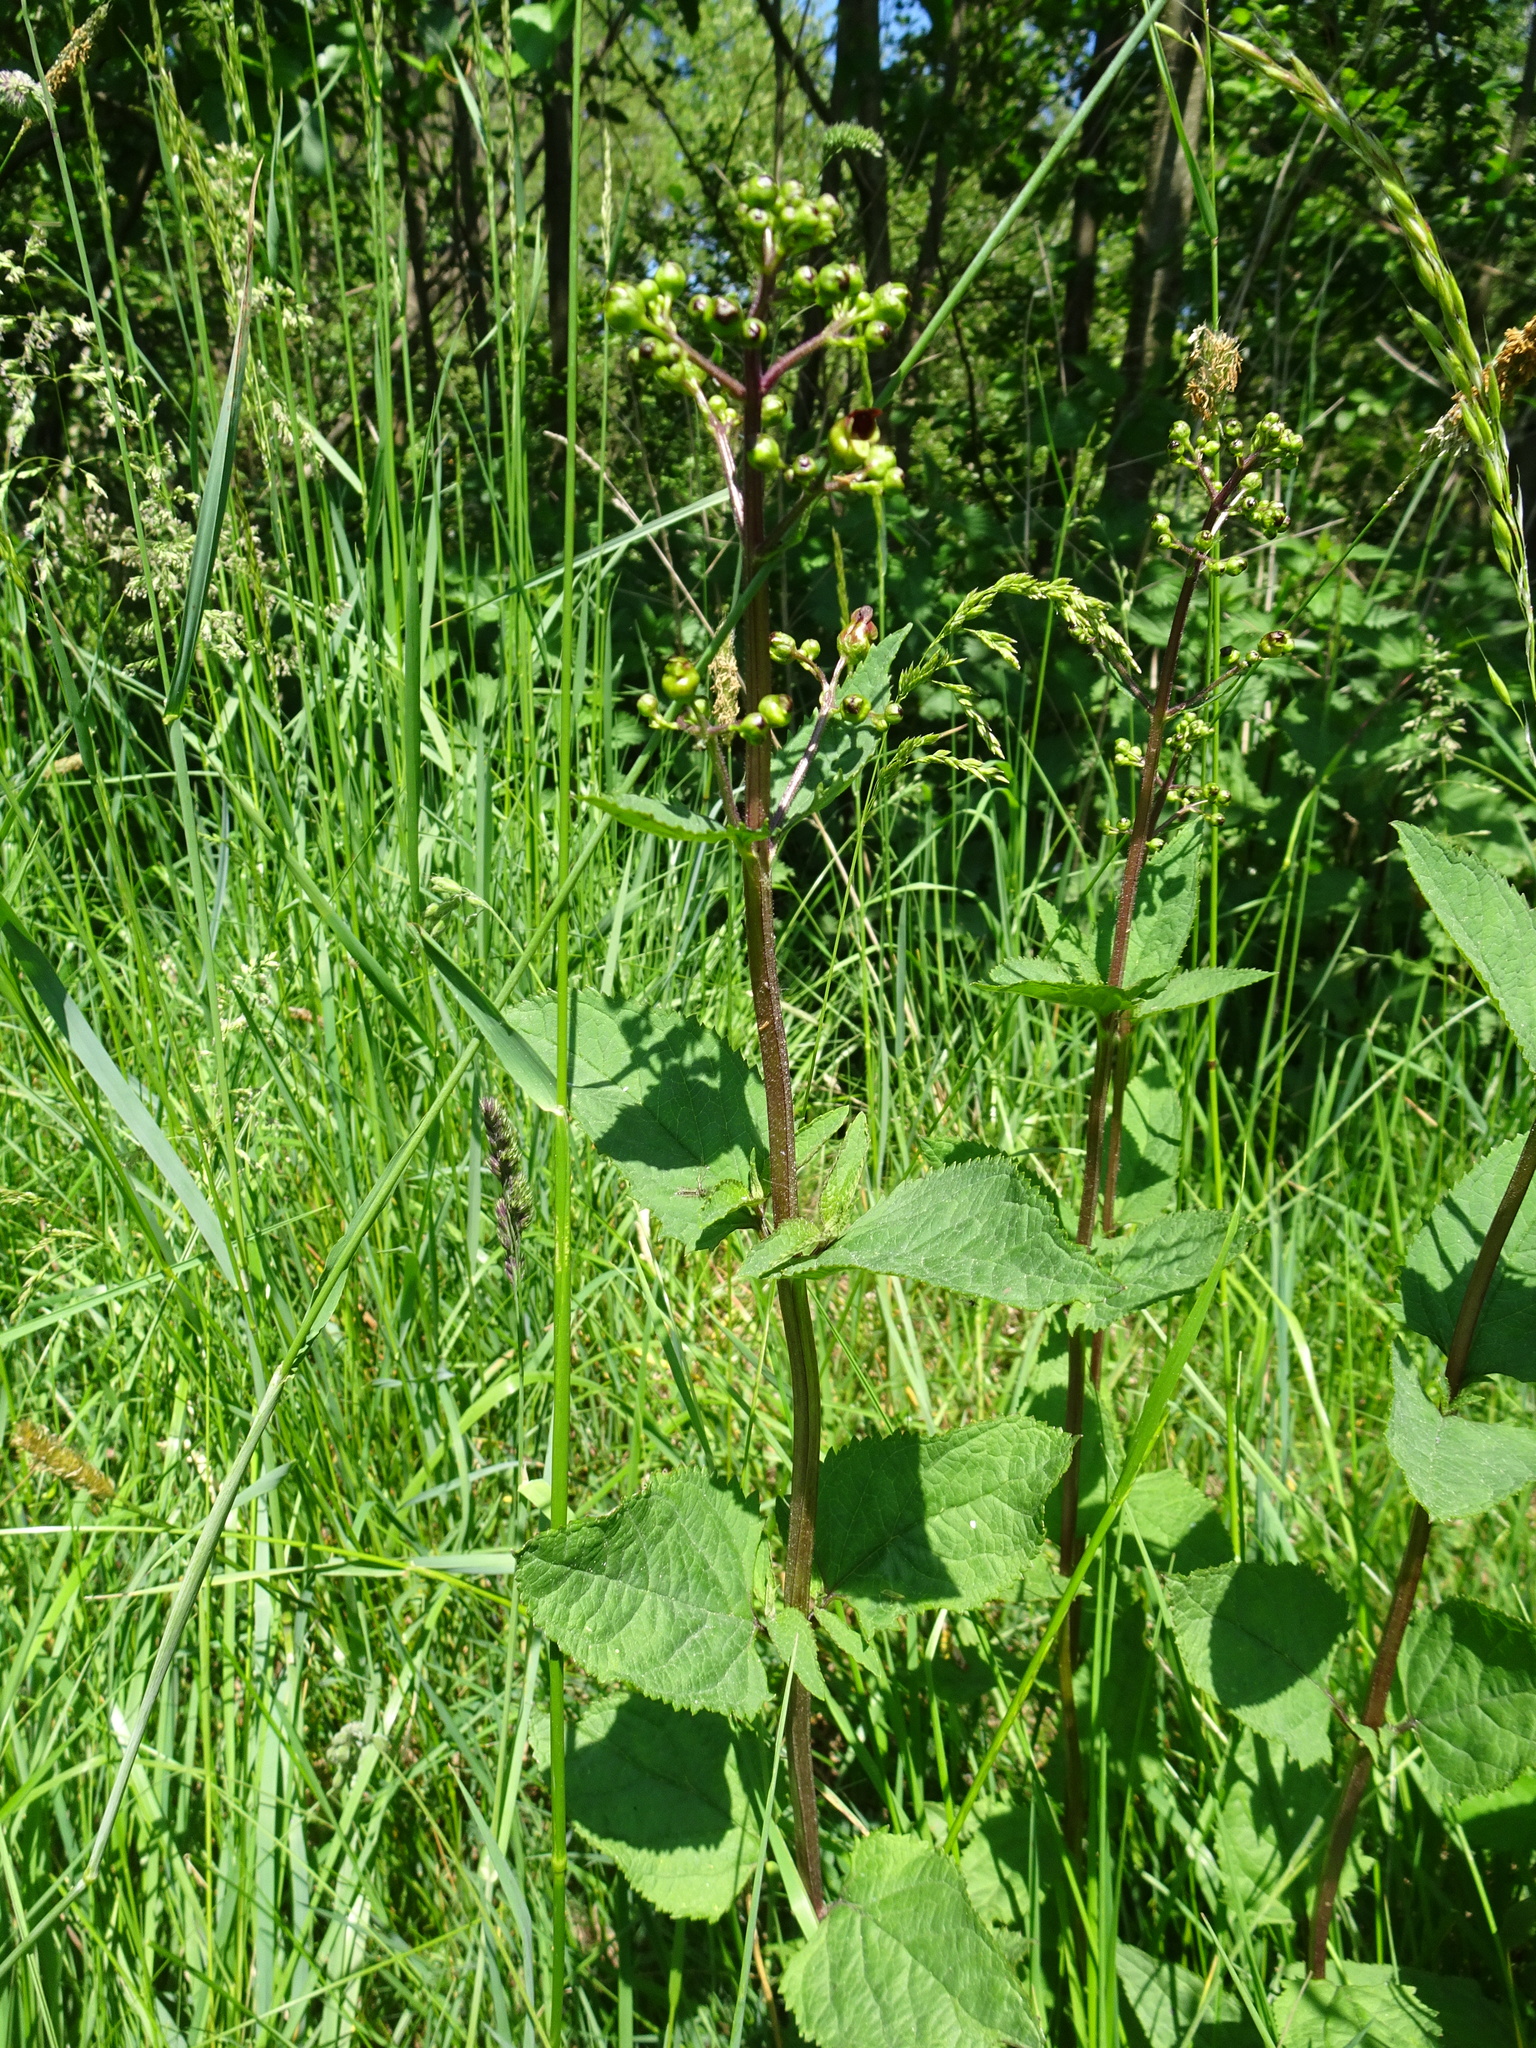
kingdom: Plantae
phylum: Tracheophyta
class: Magnoliopsida
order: Lamiales
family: Scrophulariaceae
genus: Scrophularia
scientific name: Scrophularia nodosa
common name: Common figwort
